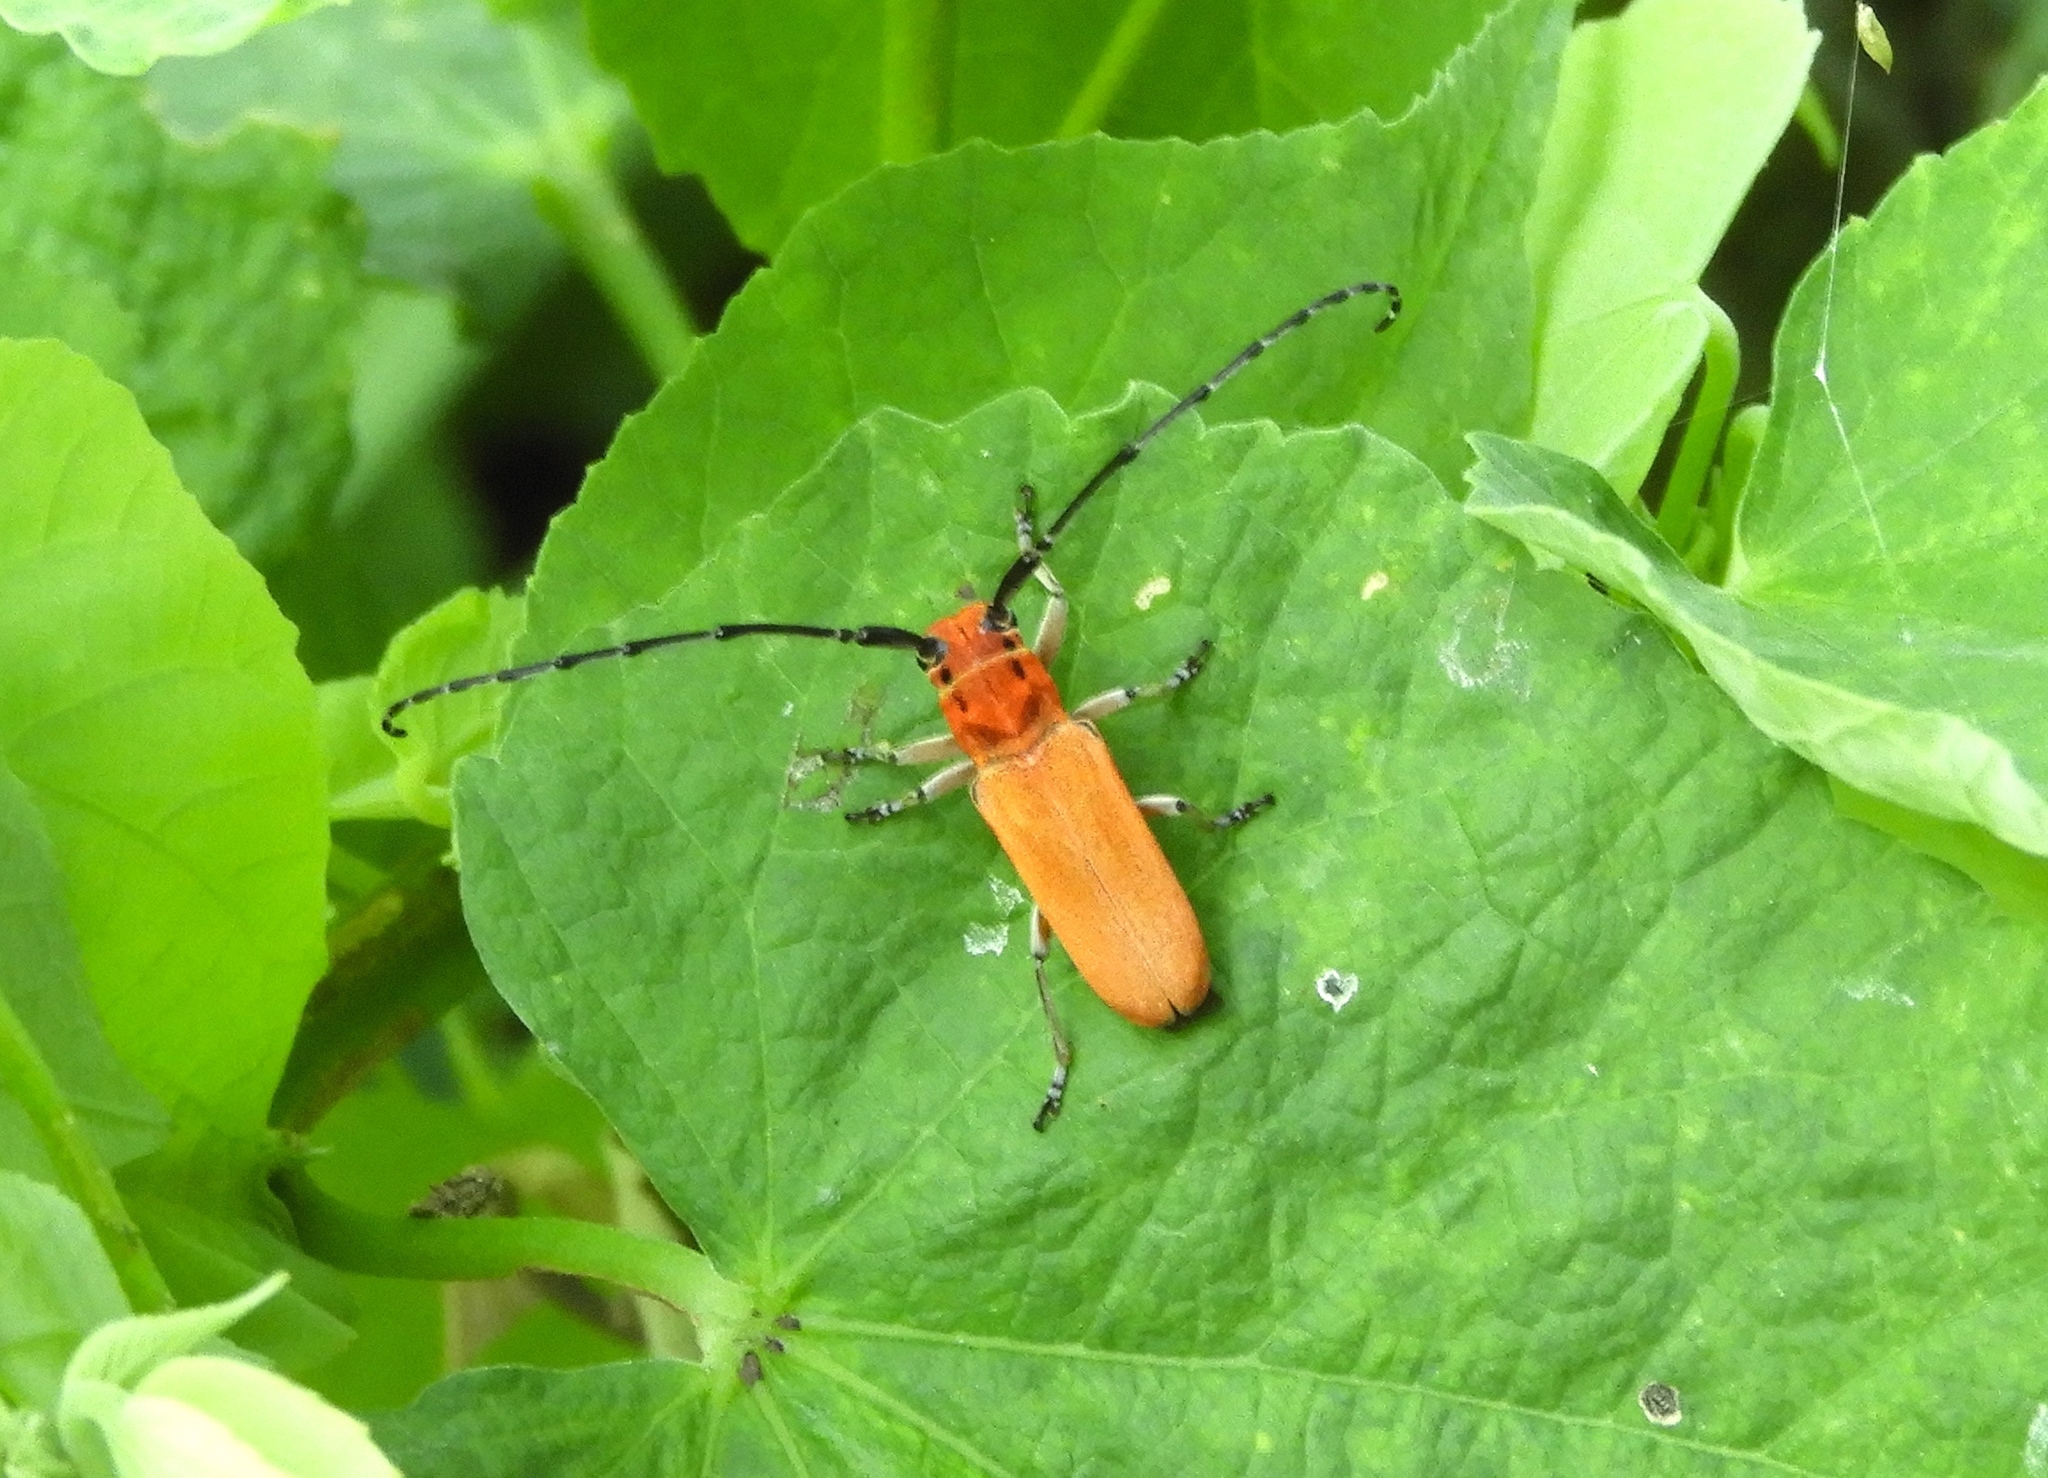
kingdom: Animalia
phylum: Arthropoda
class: Insecta
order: Coleoptera
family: Cerambycidae
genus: Essostrutha
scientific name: Essostrutha laeta
